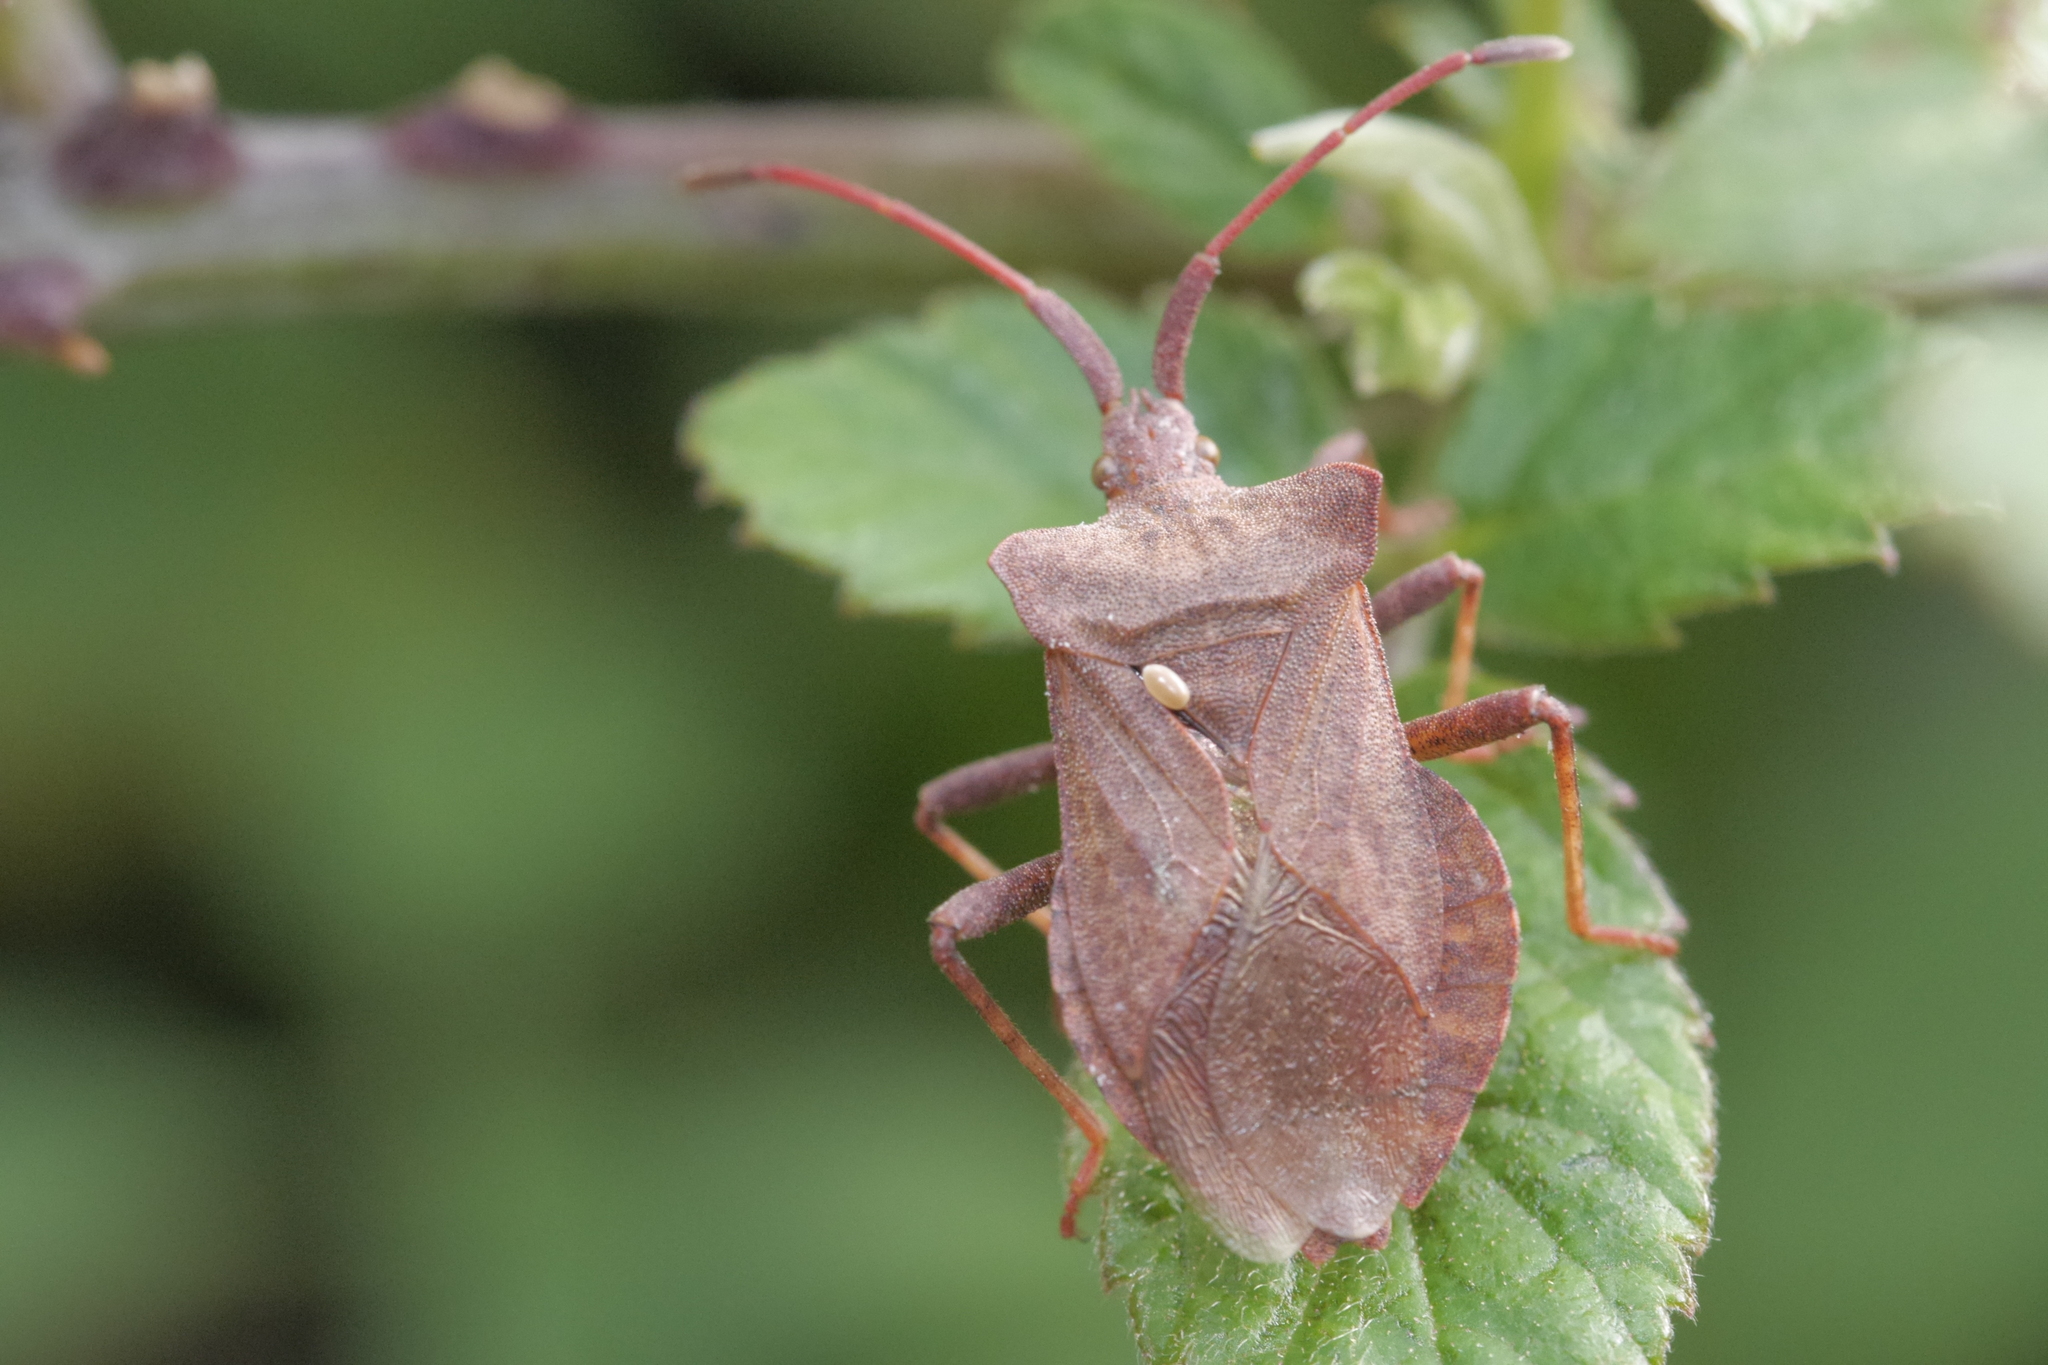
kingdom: Animalia
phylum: Arthropoda
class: Insecta
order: Hemiptera
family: Coreidae
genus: Coreus
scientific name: Coreus marginatus
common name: Dock bug
